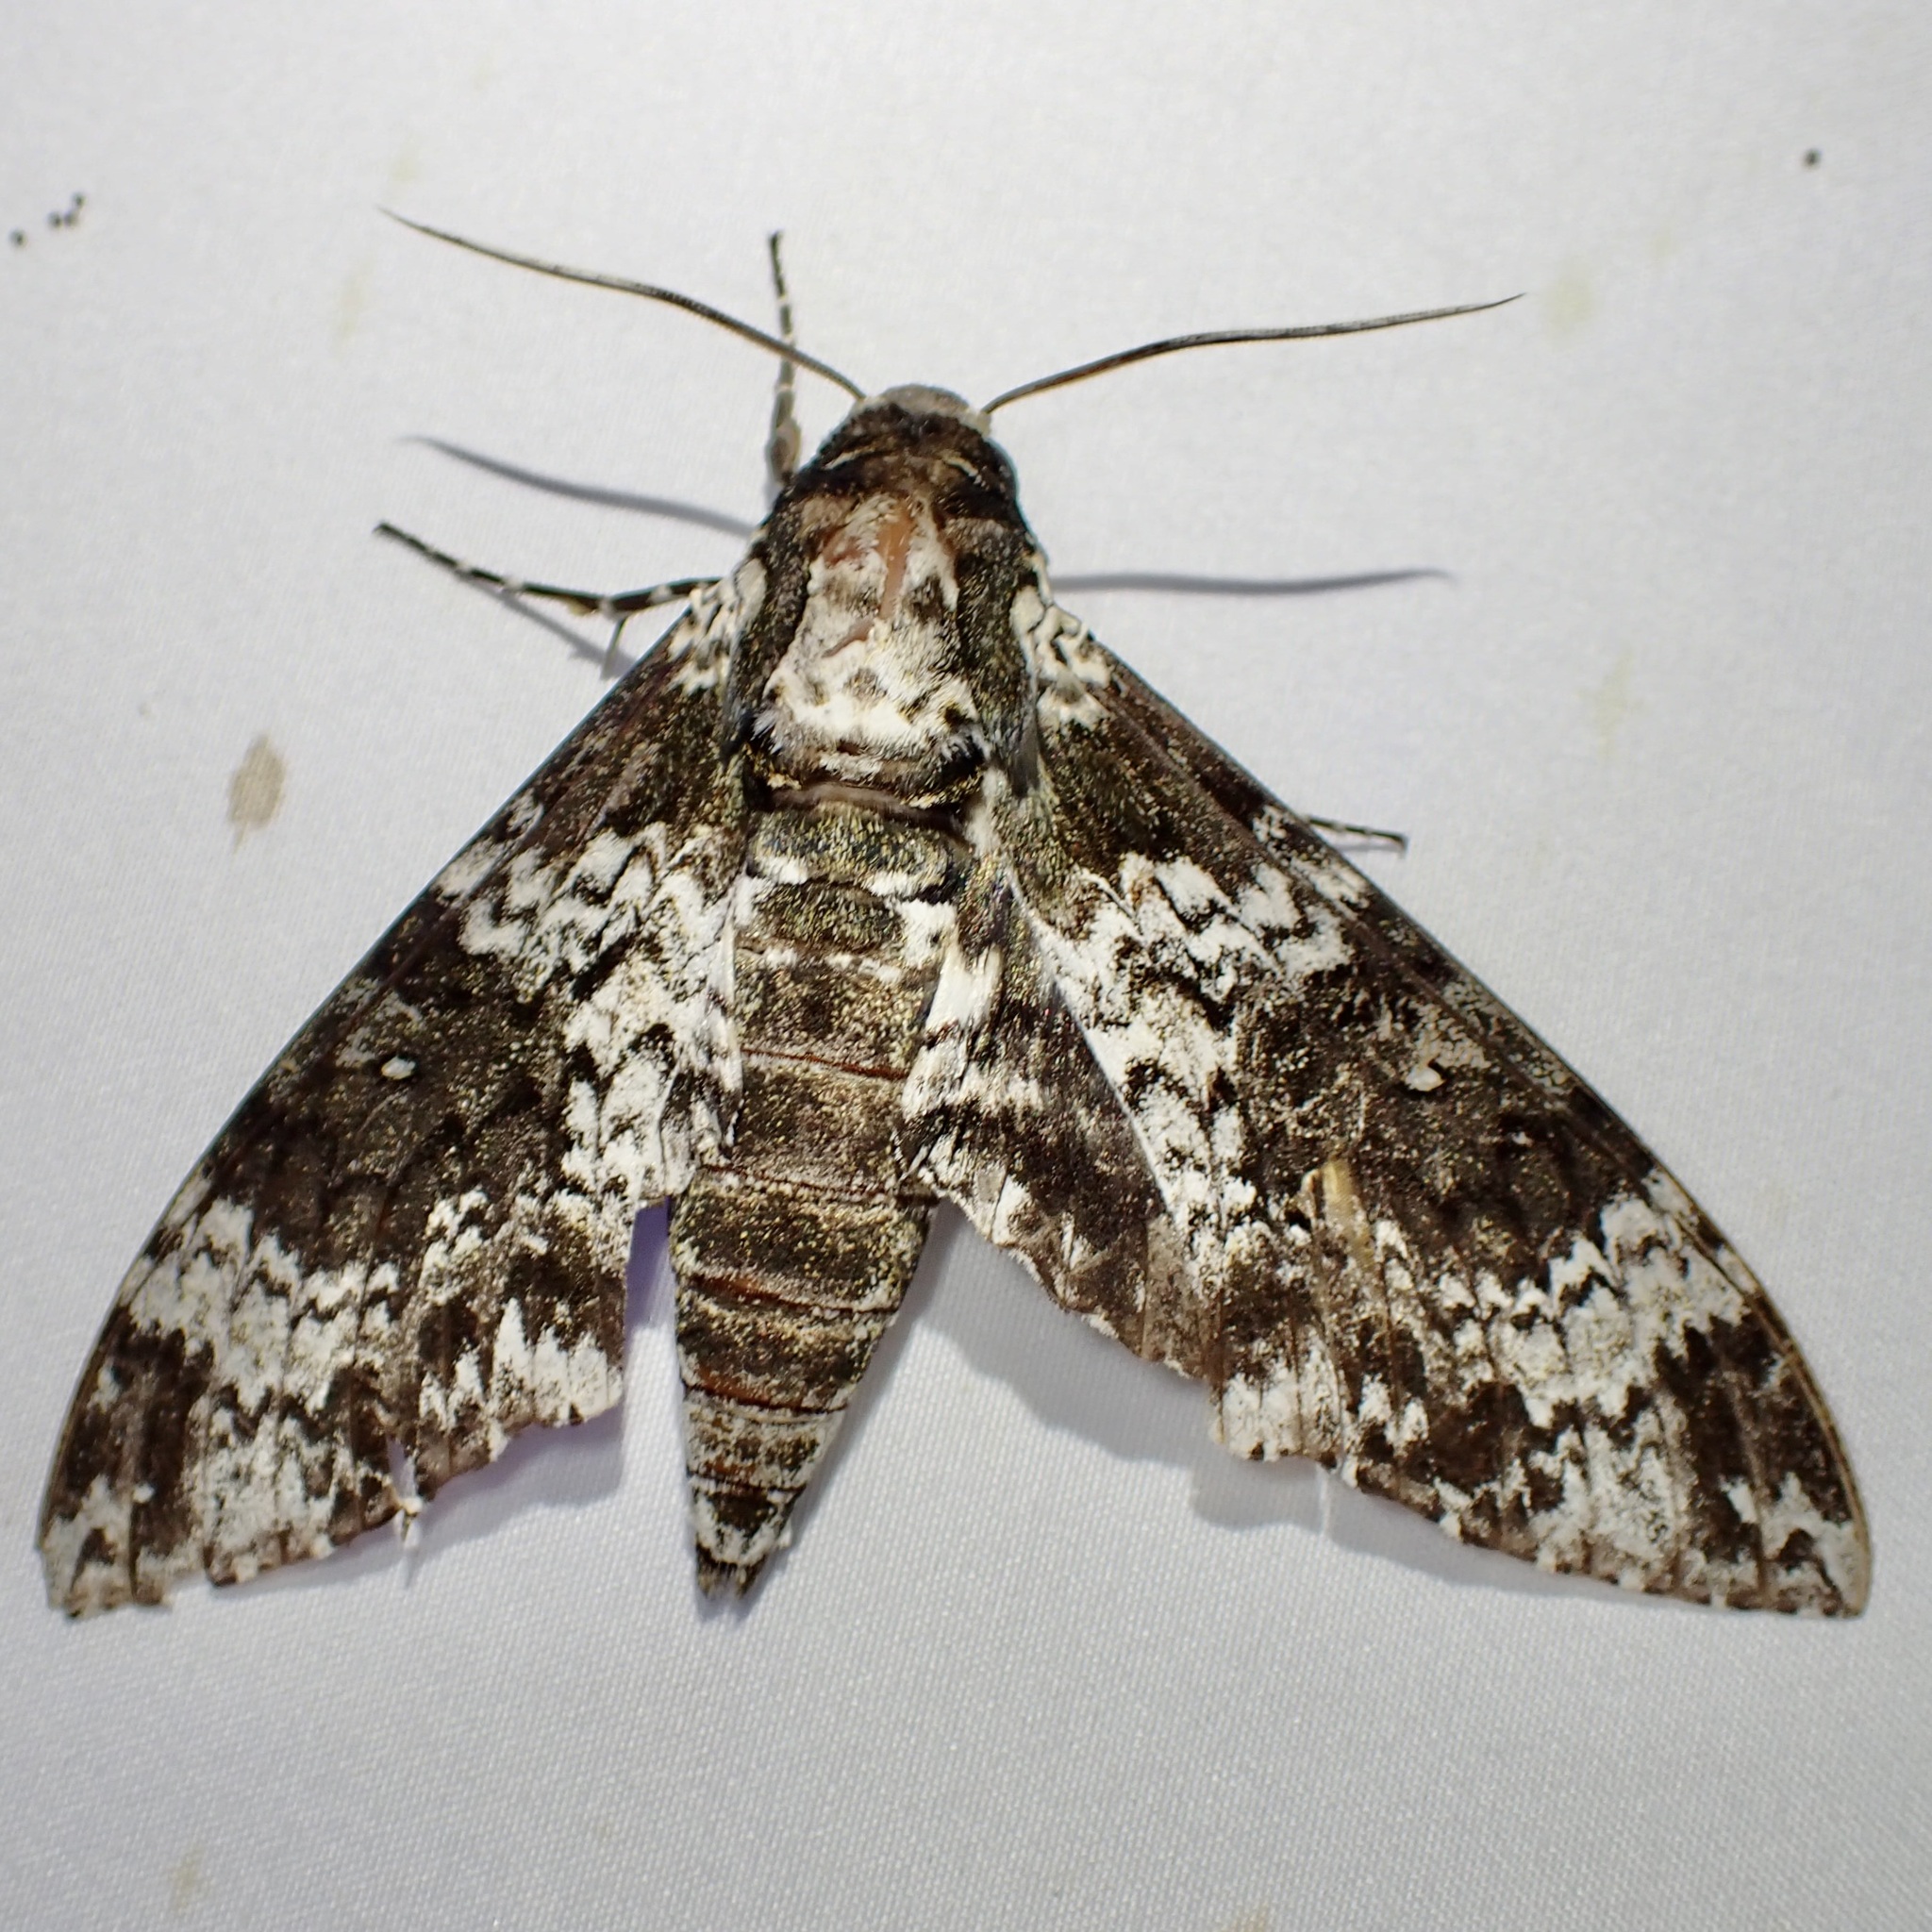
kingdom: Animalia
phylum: Arthropoda
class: Insecta
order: Lepidoptera
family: Sphingidae
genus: Manduca
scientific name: Manduca rustica
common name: Rustic sphinx
